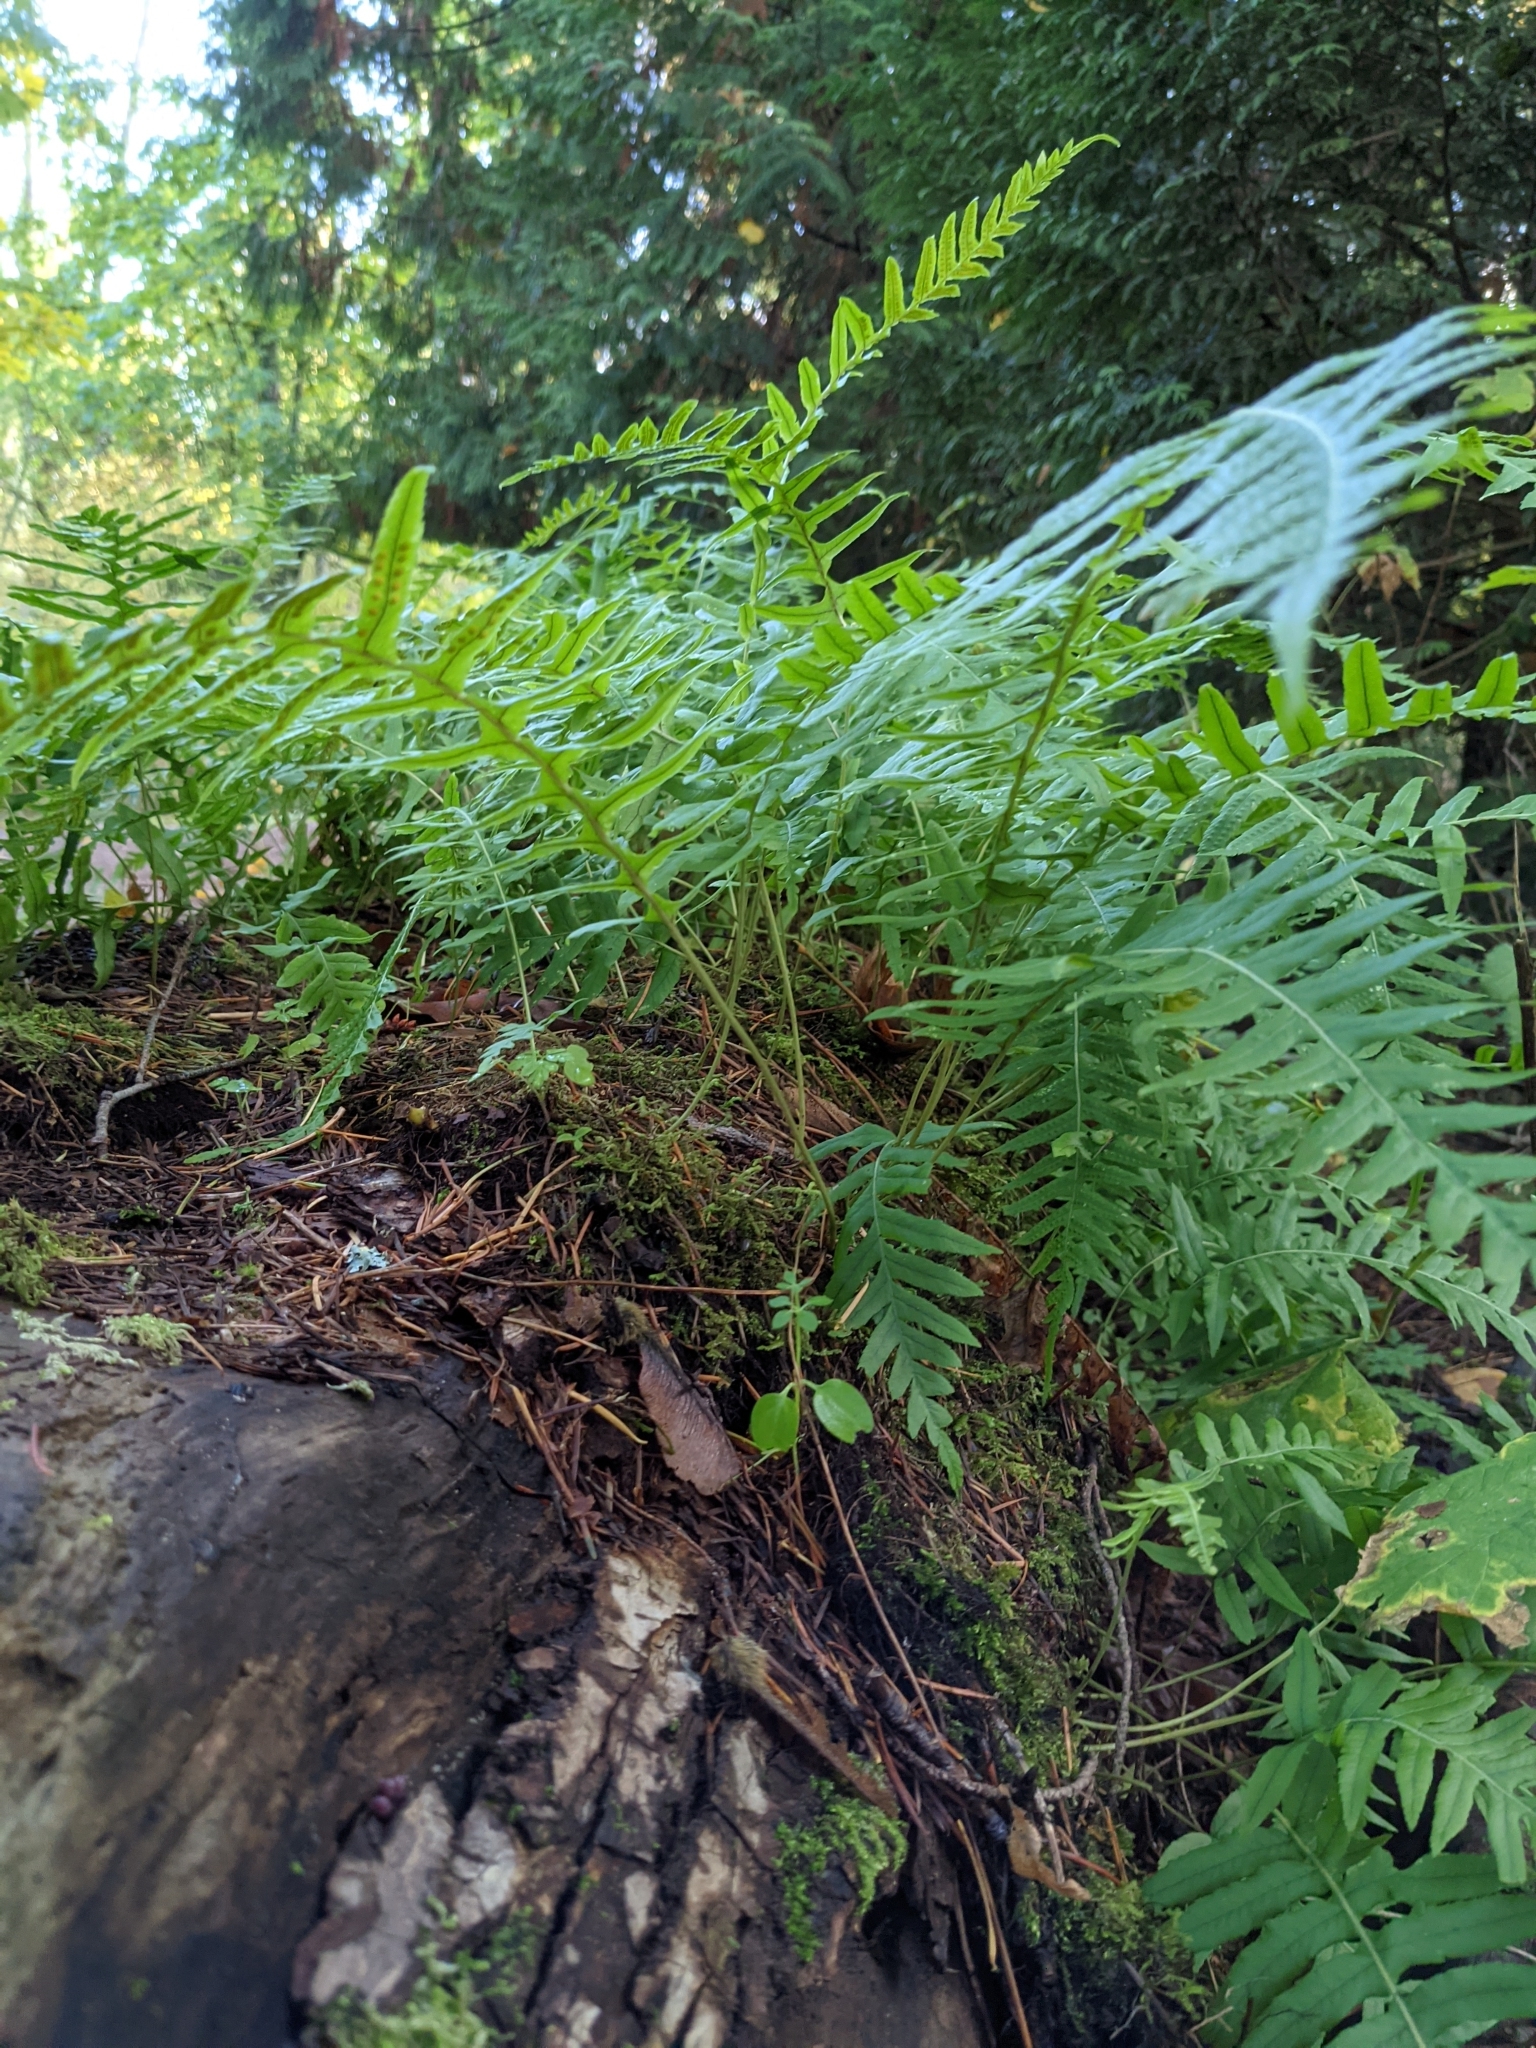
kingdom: Plantae
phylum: Tracheophyta
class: Polypodiopsida
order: Polypodiales
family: Polypodiaceae
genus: Polypodium
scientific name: Polypodium glycyrrhiza
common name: Licorice fern
